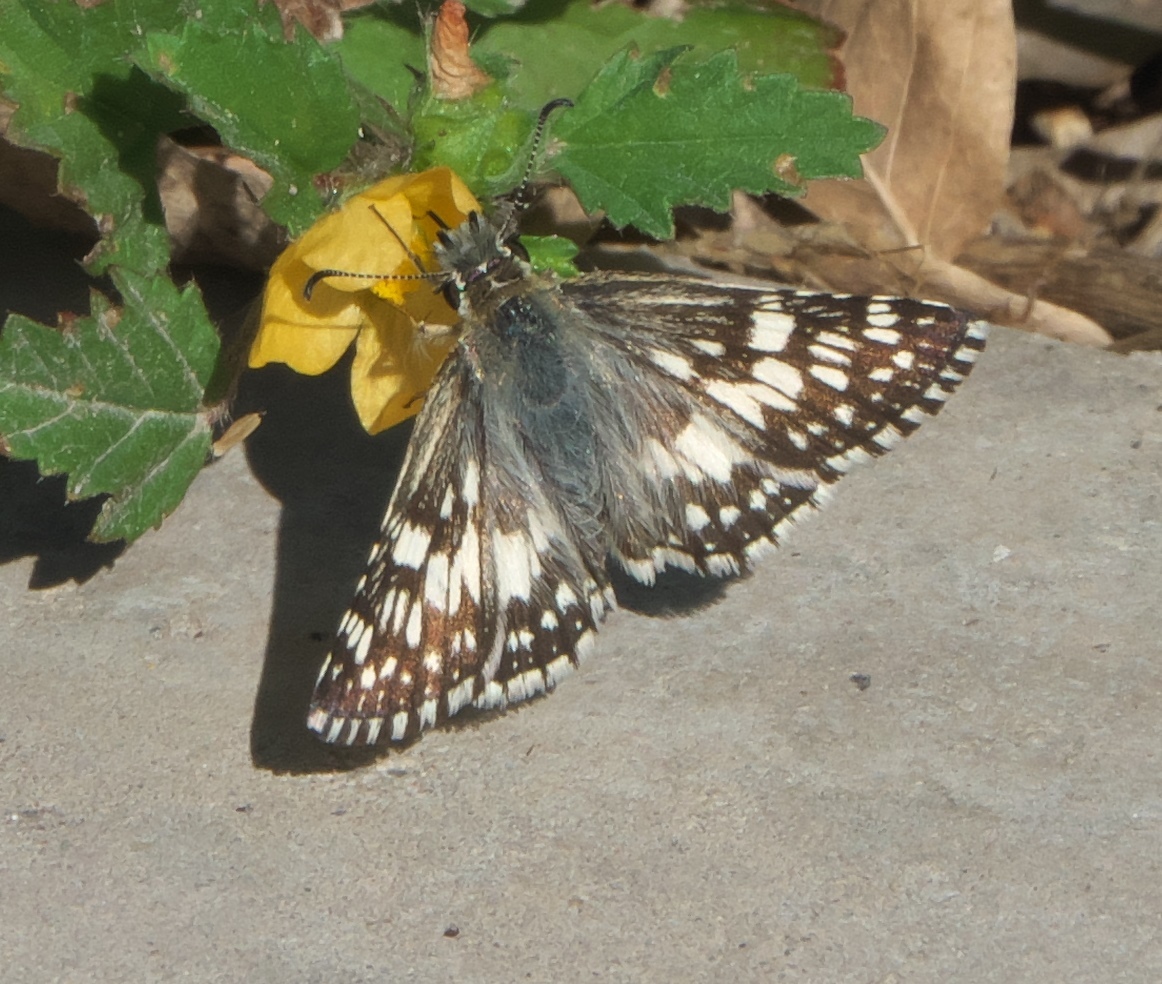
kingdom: Animalia
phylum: Arthropoda
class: Insecta
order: Lepidoptera
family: Hesperiidae
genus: Burnsius
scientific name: Burnsius
